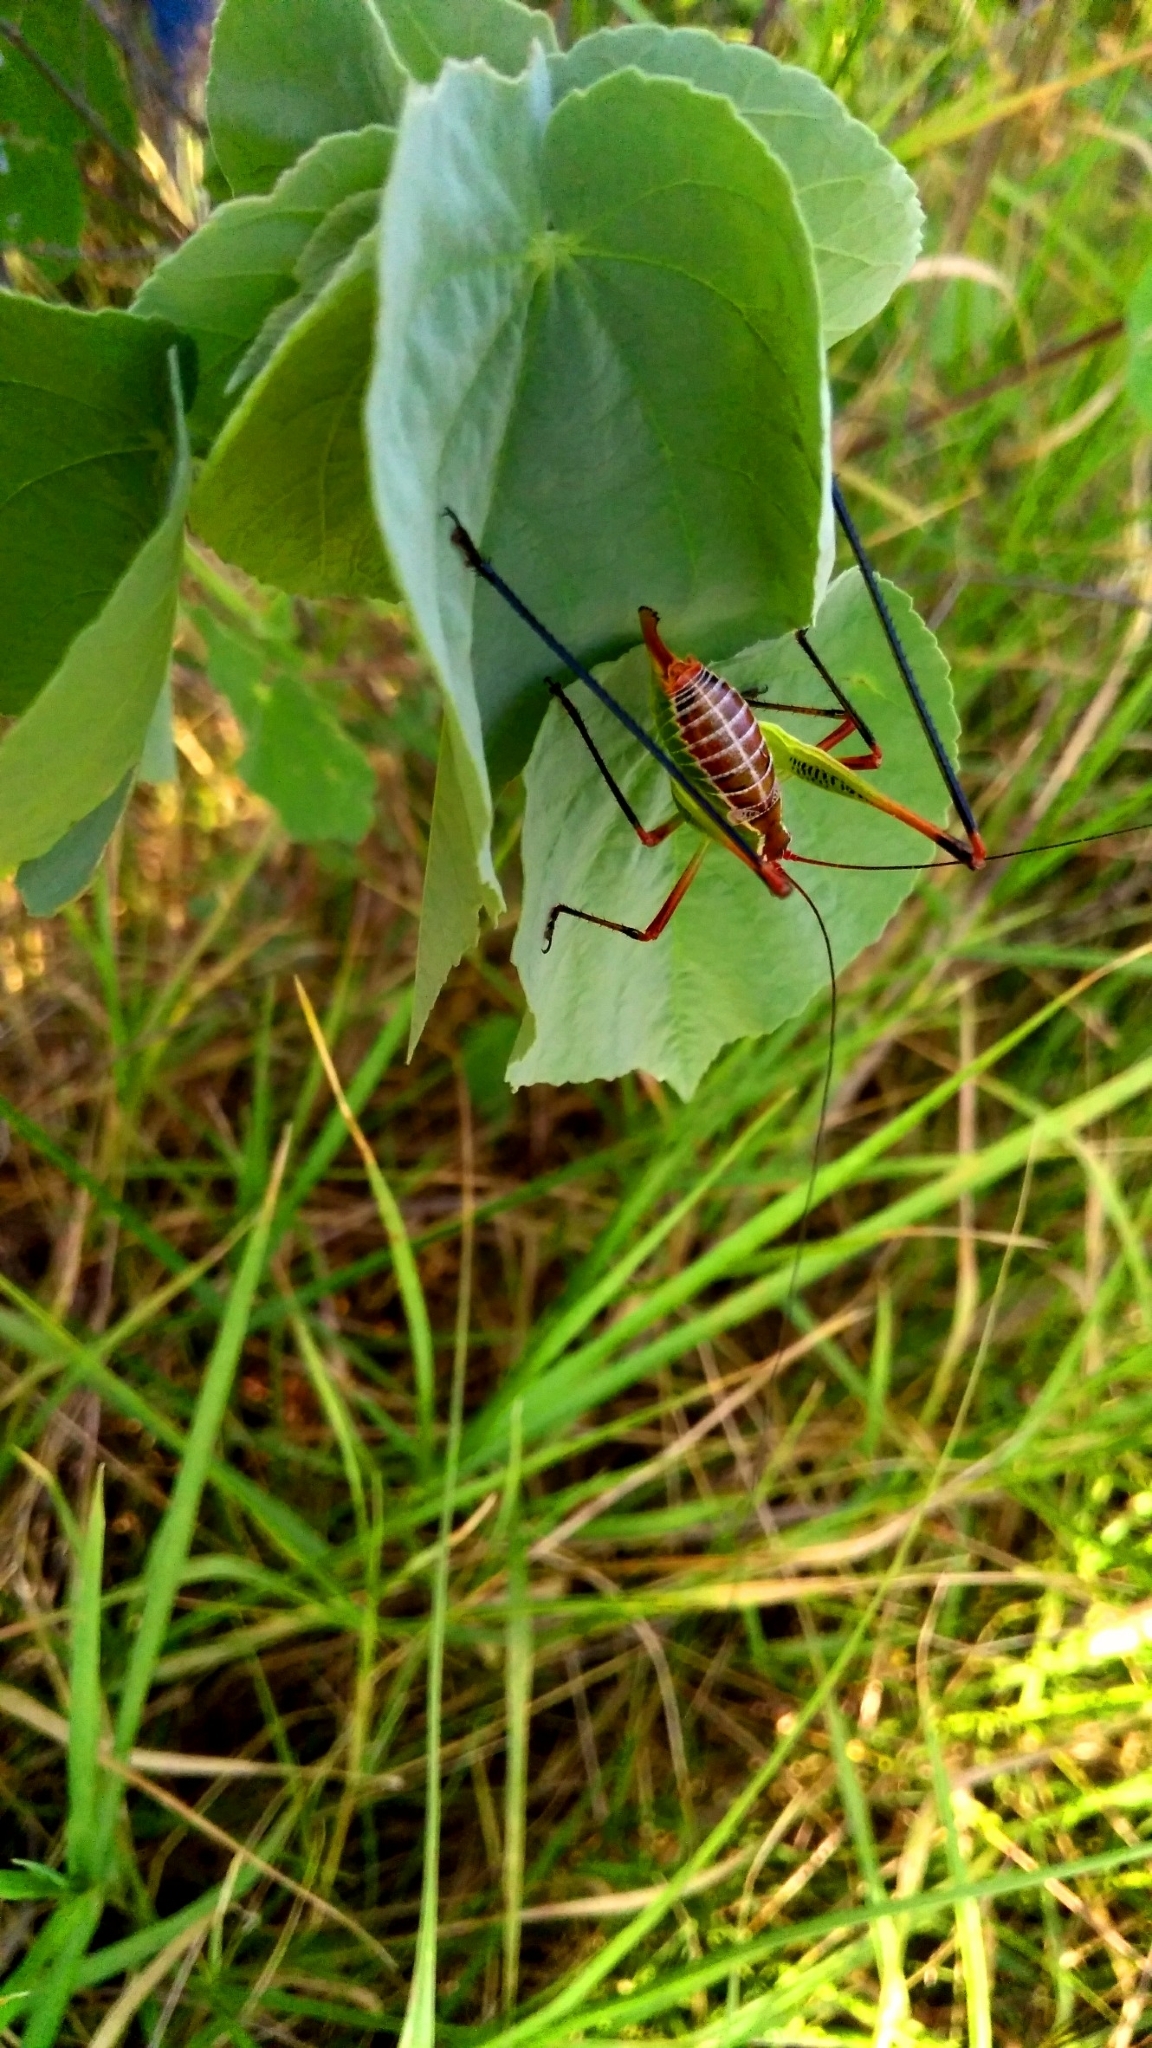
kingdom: Animalia
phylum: Arthropoda
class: Insecta
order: Orthoptera
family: Tettigoniidae
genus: Obolopteryx
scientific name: Obolopteryx castanea
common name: Chestnut short-winged katydid
